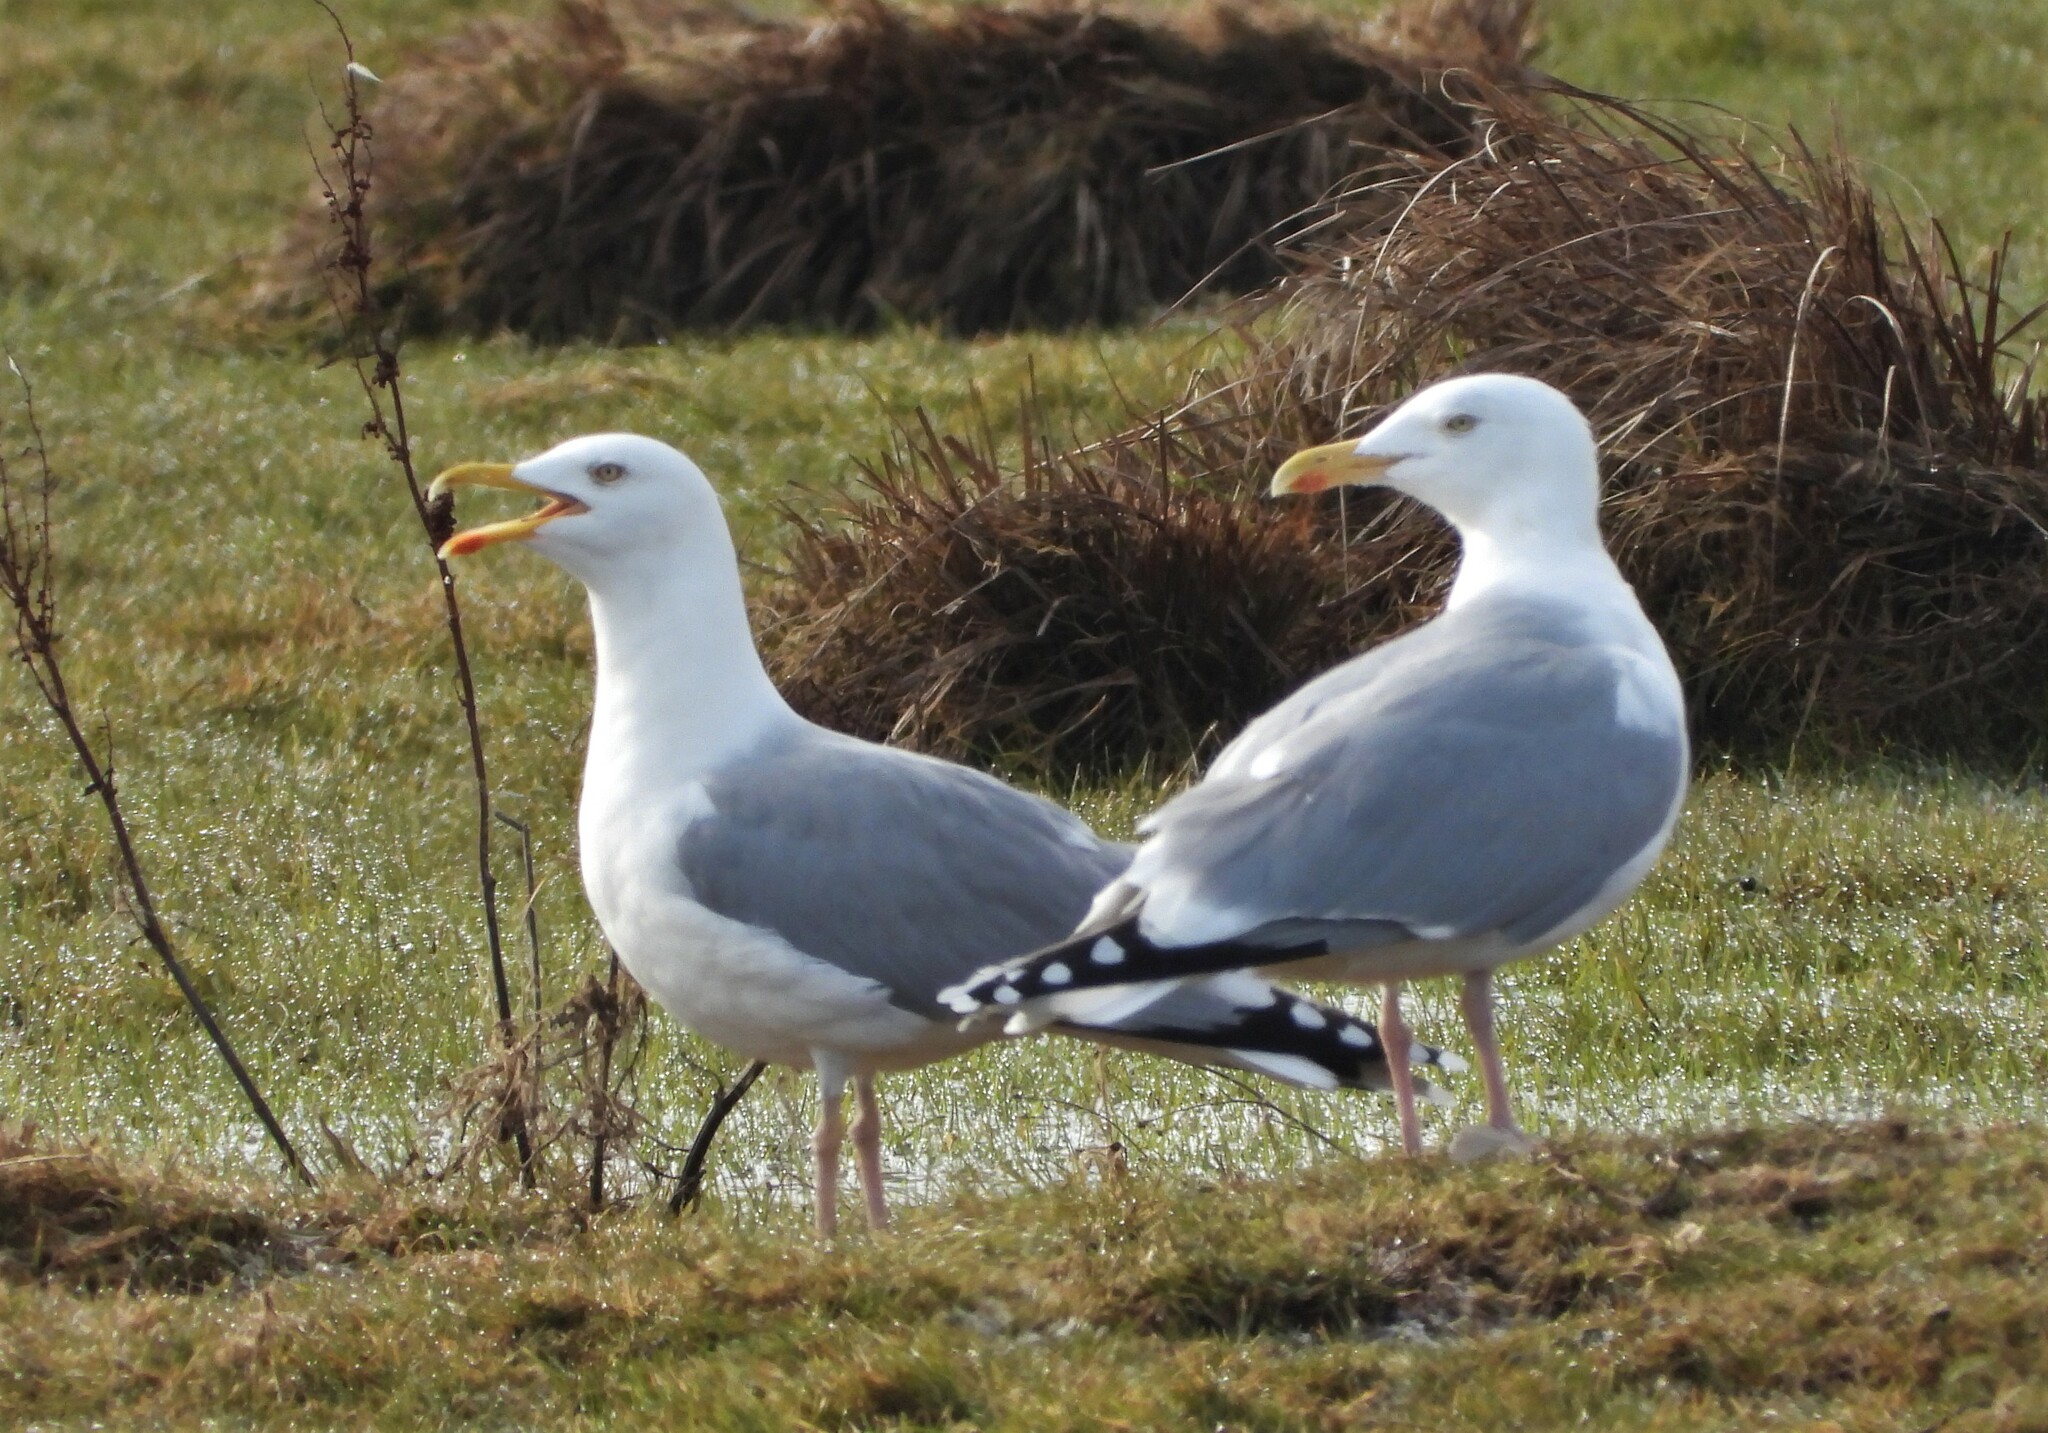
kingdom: Animalia
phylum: Chordata
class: Aves
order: Charadriiformes
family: Laridae
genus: Larus
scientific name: Larus argentatus
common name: Herring gull
